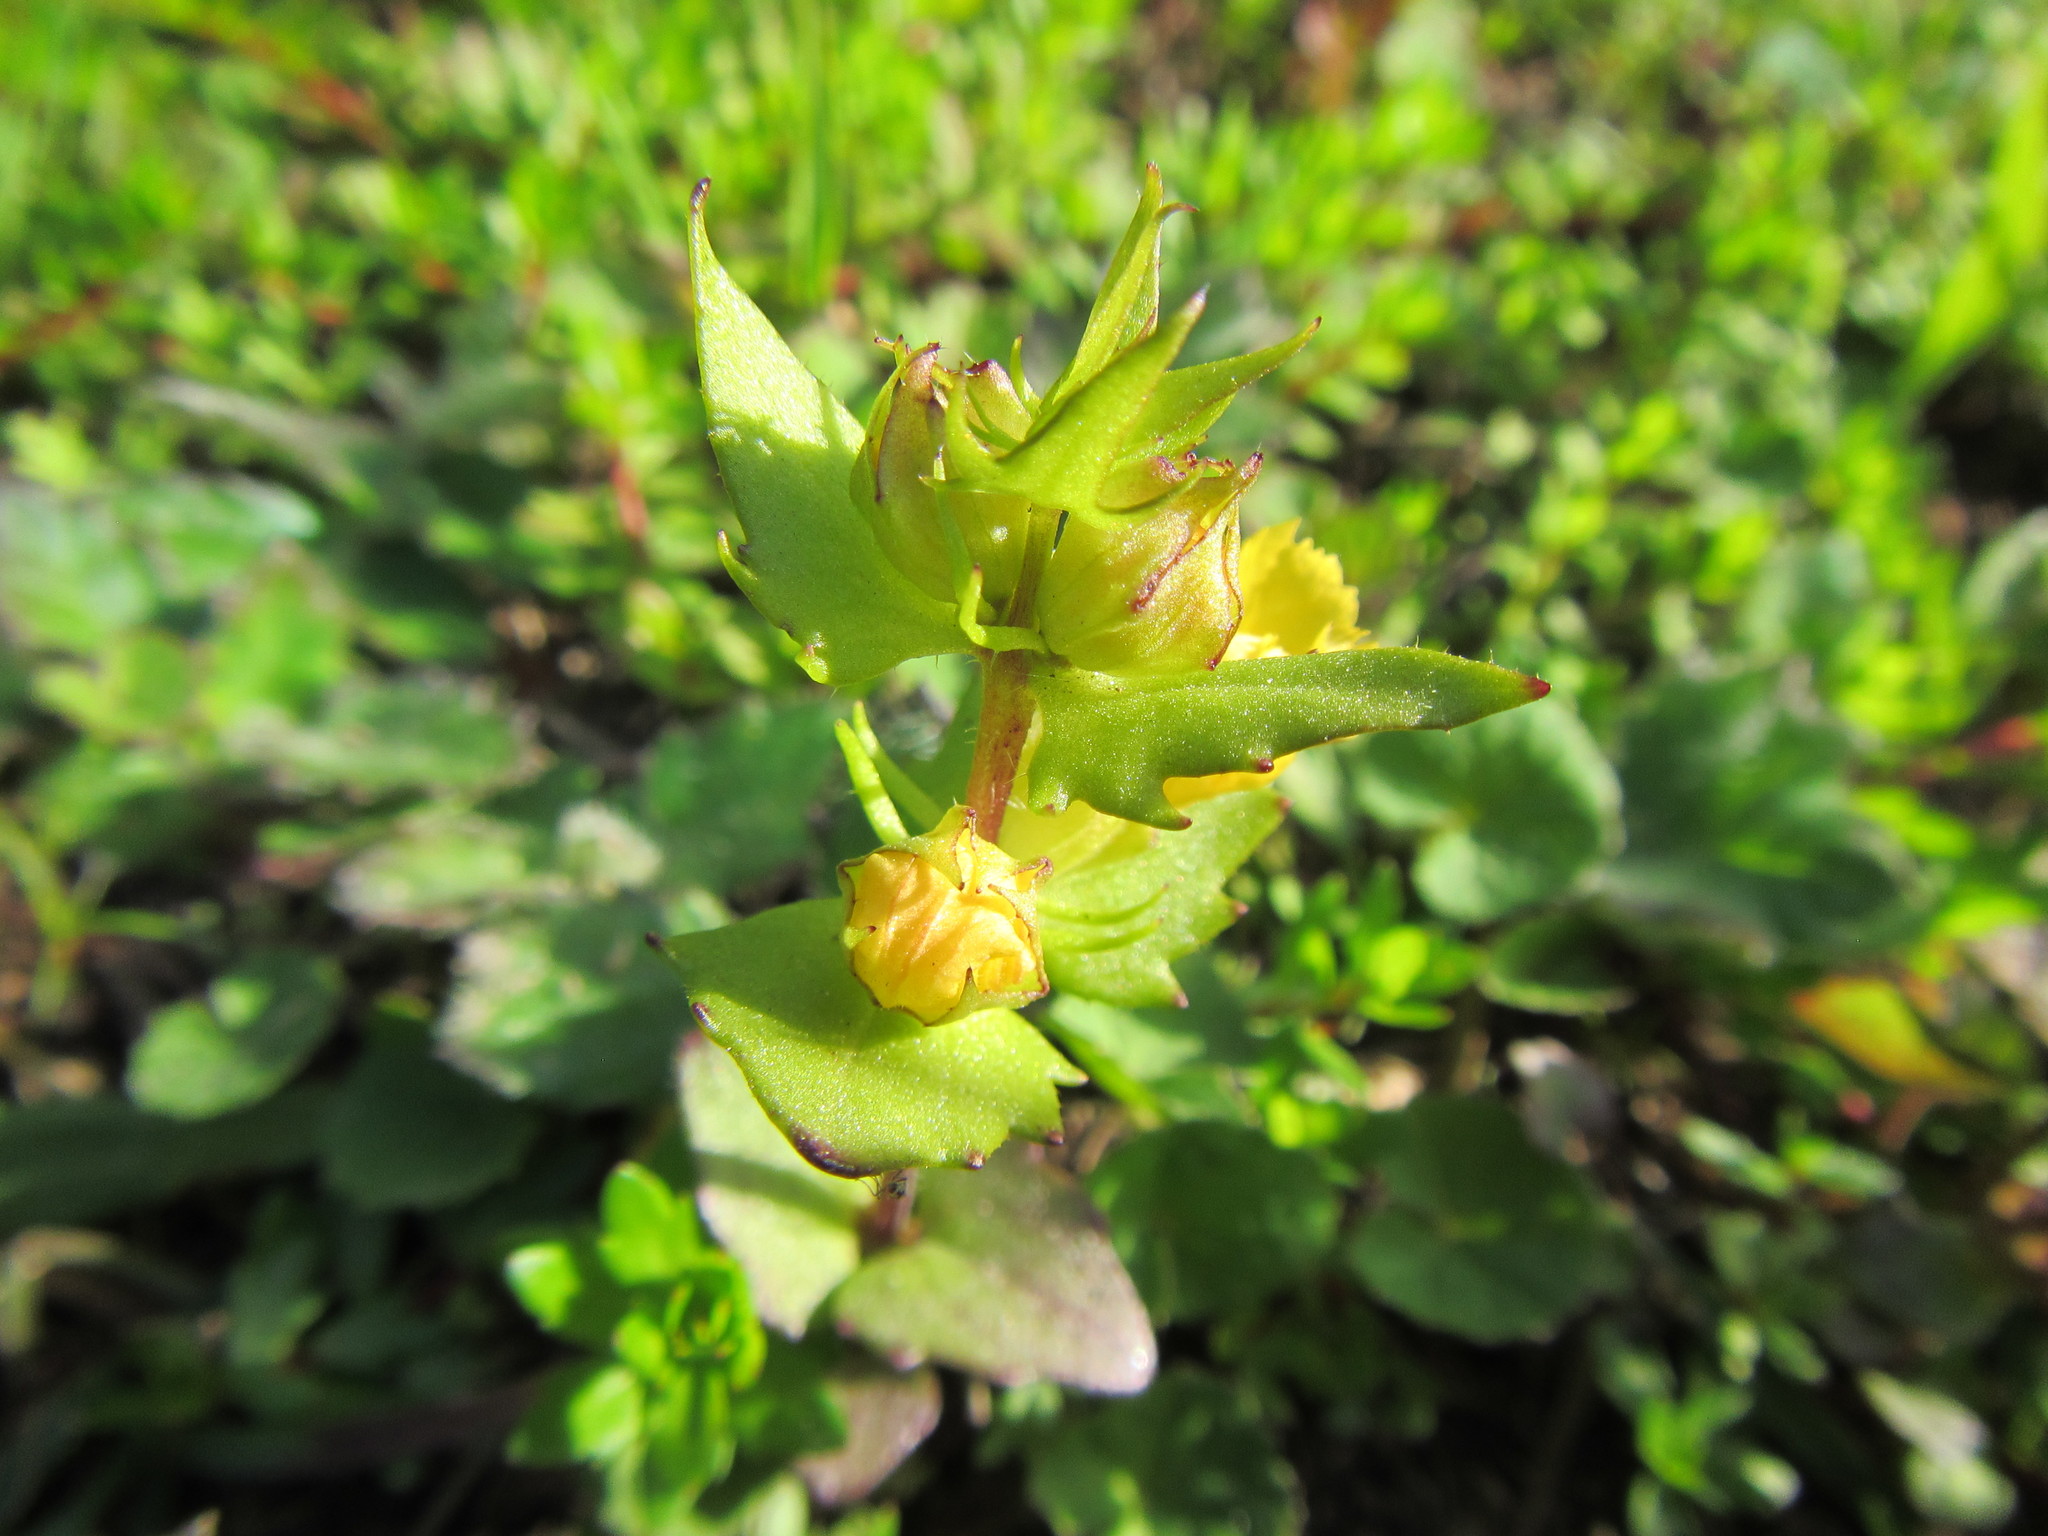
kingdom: Plantae
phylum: Tracheophyta
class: Magnoliopsida
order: Lamiales
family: Orobanchaceae
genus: Alectra
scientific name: Alectra sessiliflora
